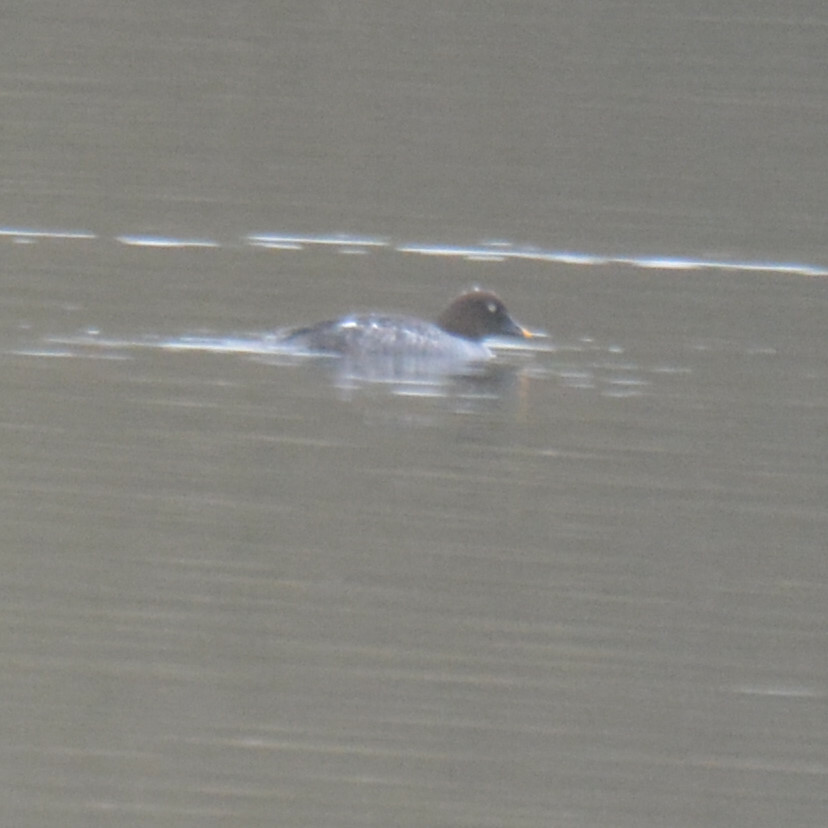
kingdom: Animalia
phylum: Chordata
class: Aves
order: Anseriformes
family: Anatidae
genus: Bucephala
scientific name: Bucephala clangula
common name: Common goldeneye
